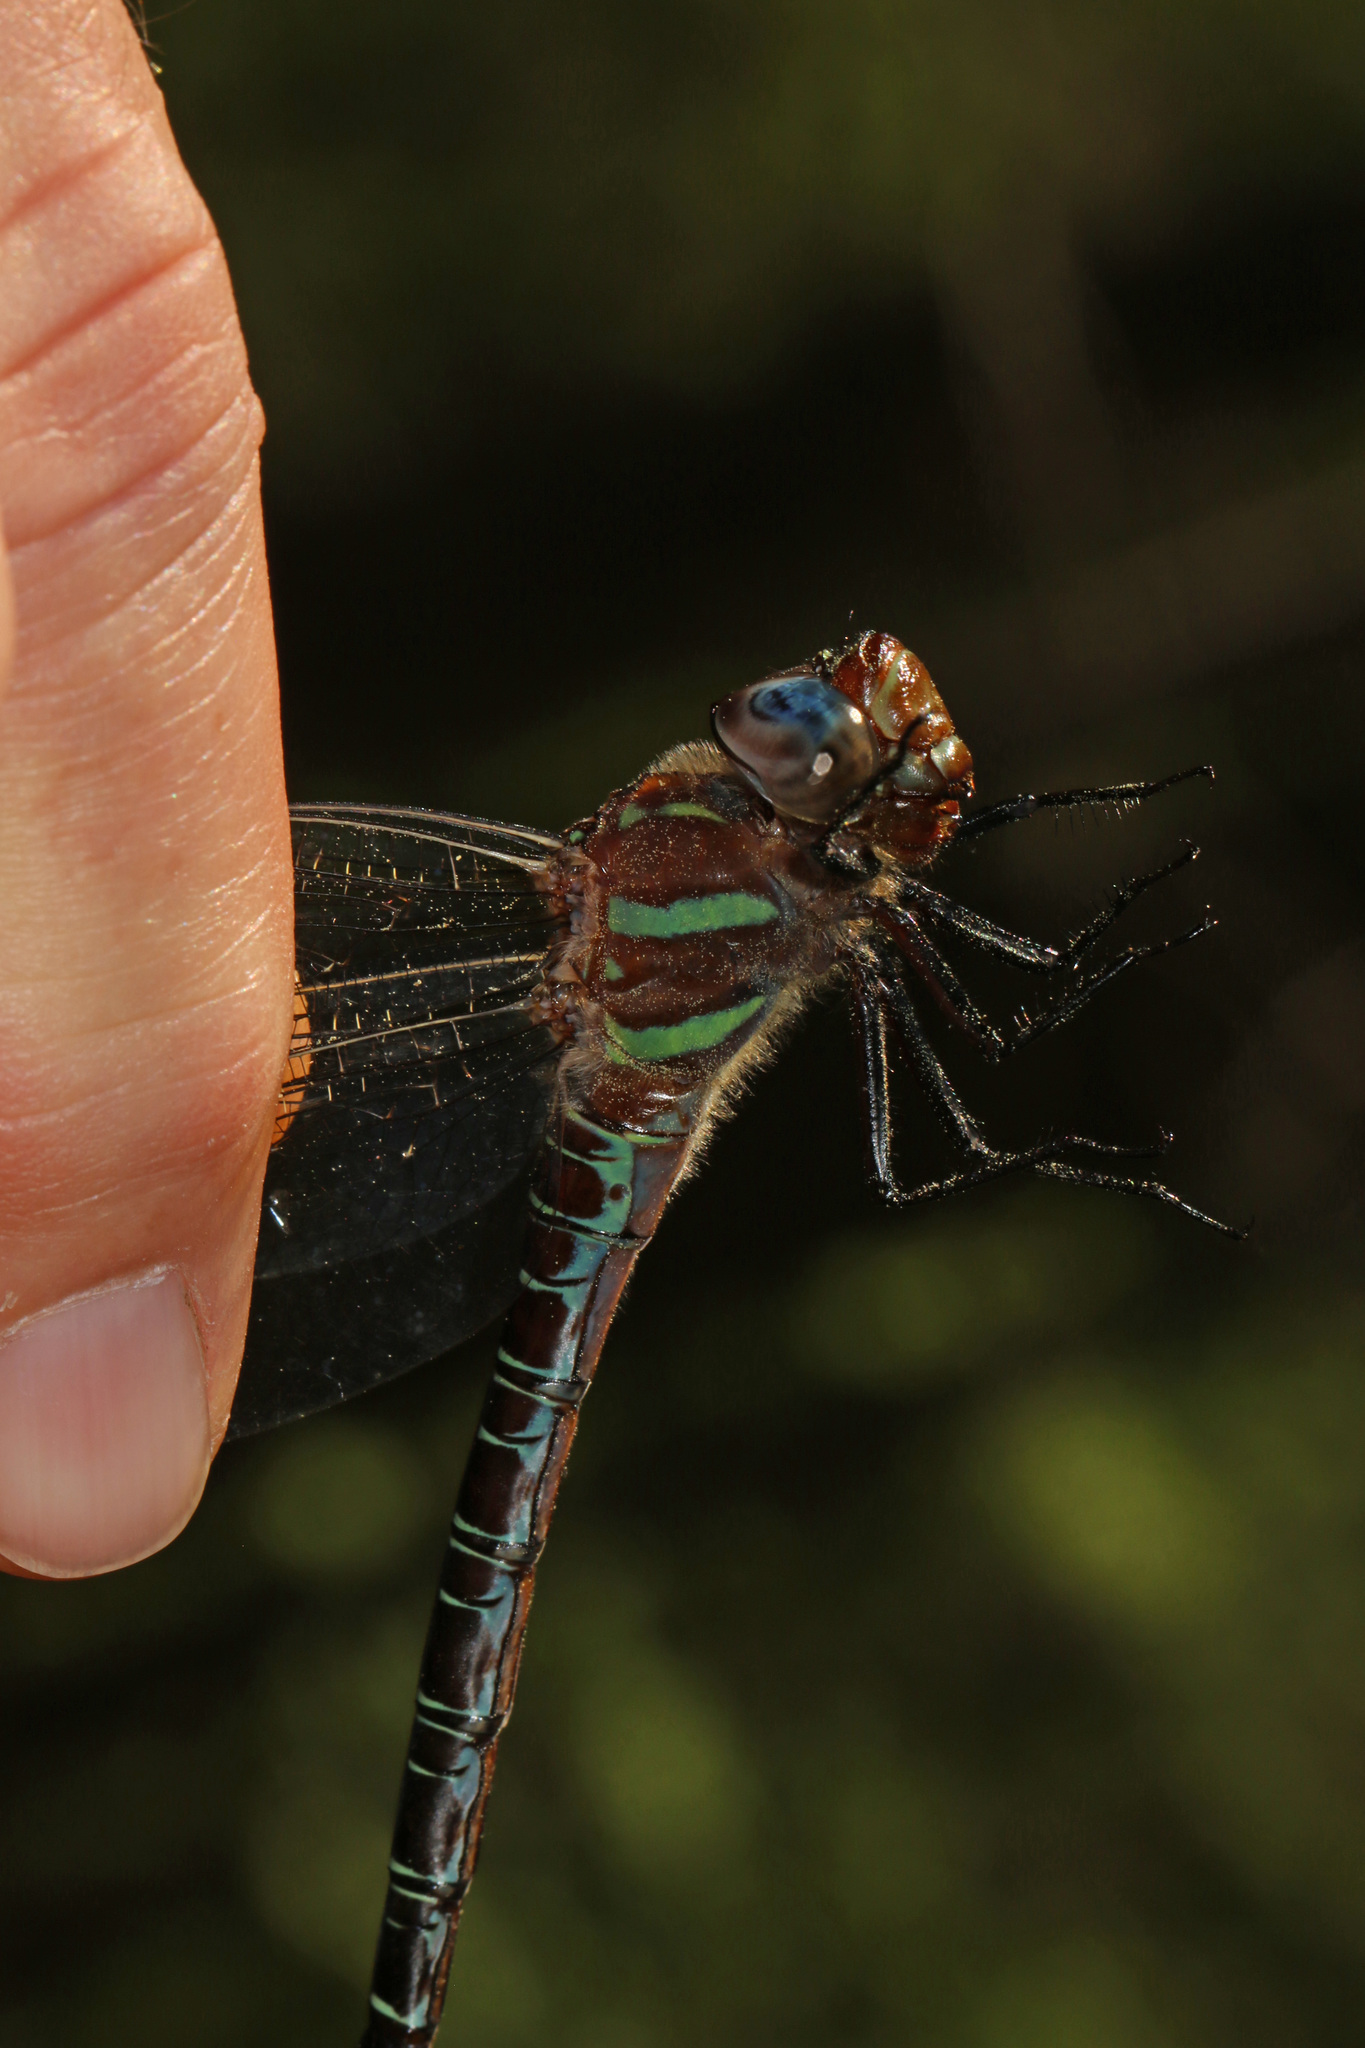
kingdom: Animalia
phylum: Arthropoda
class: Insecta
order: Odonata
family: Aeshnidae
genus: Epiaeschna
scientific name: Epiaeschna heros
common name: Swamp darner
